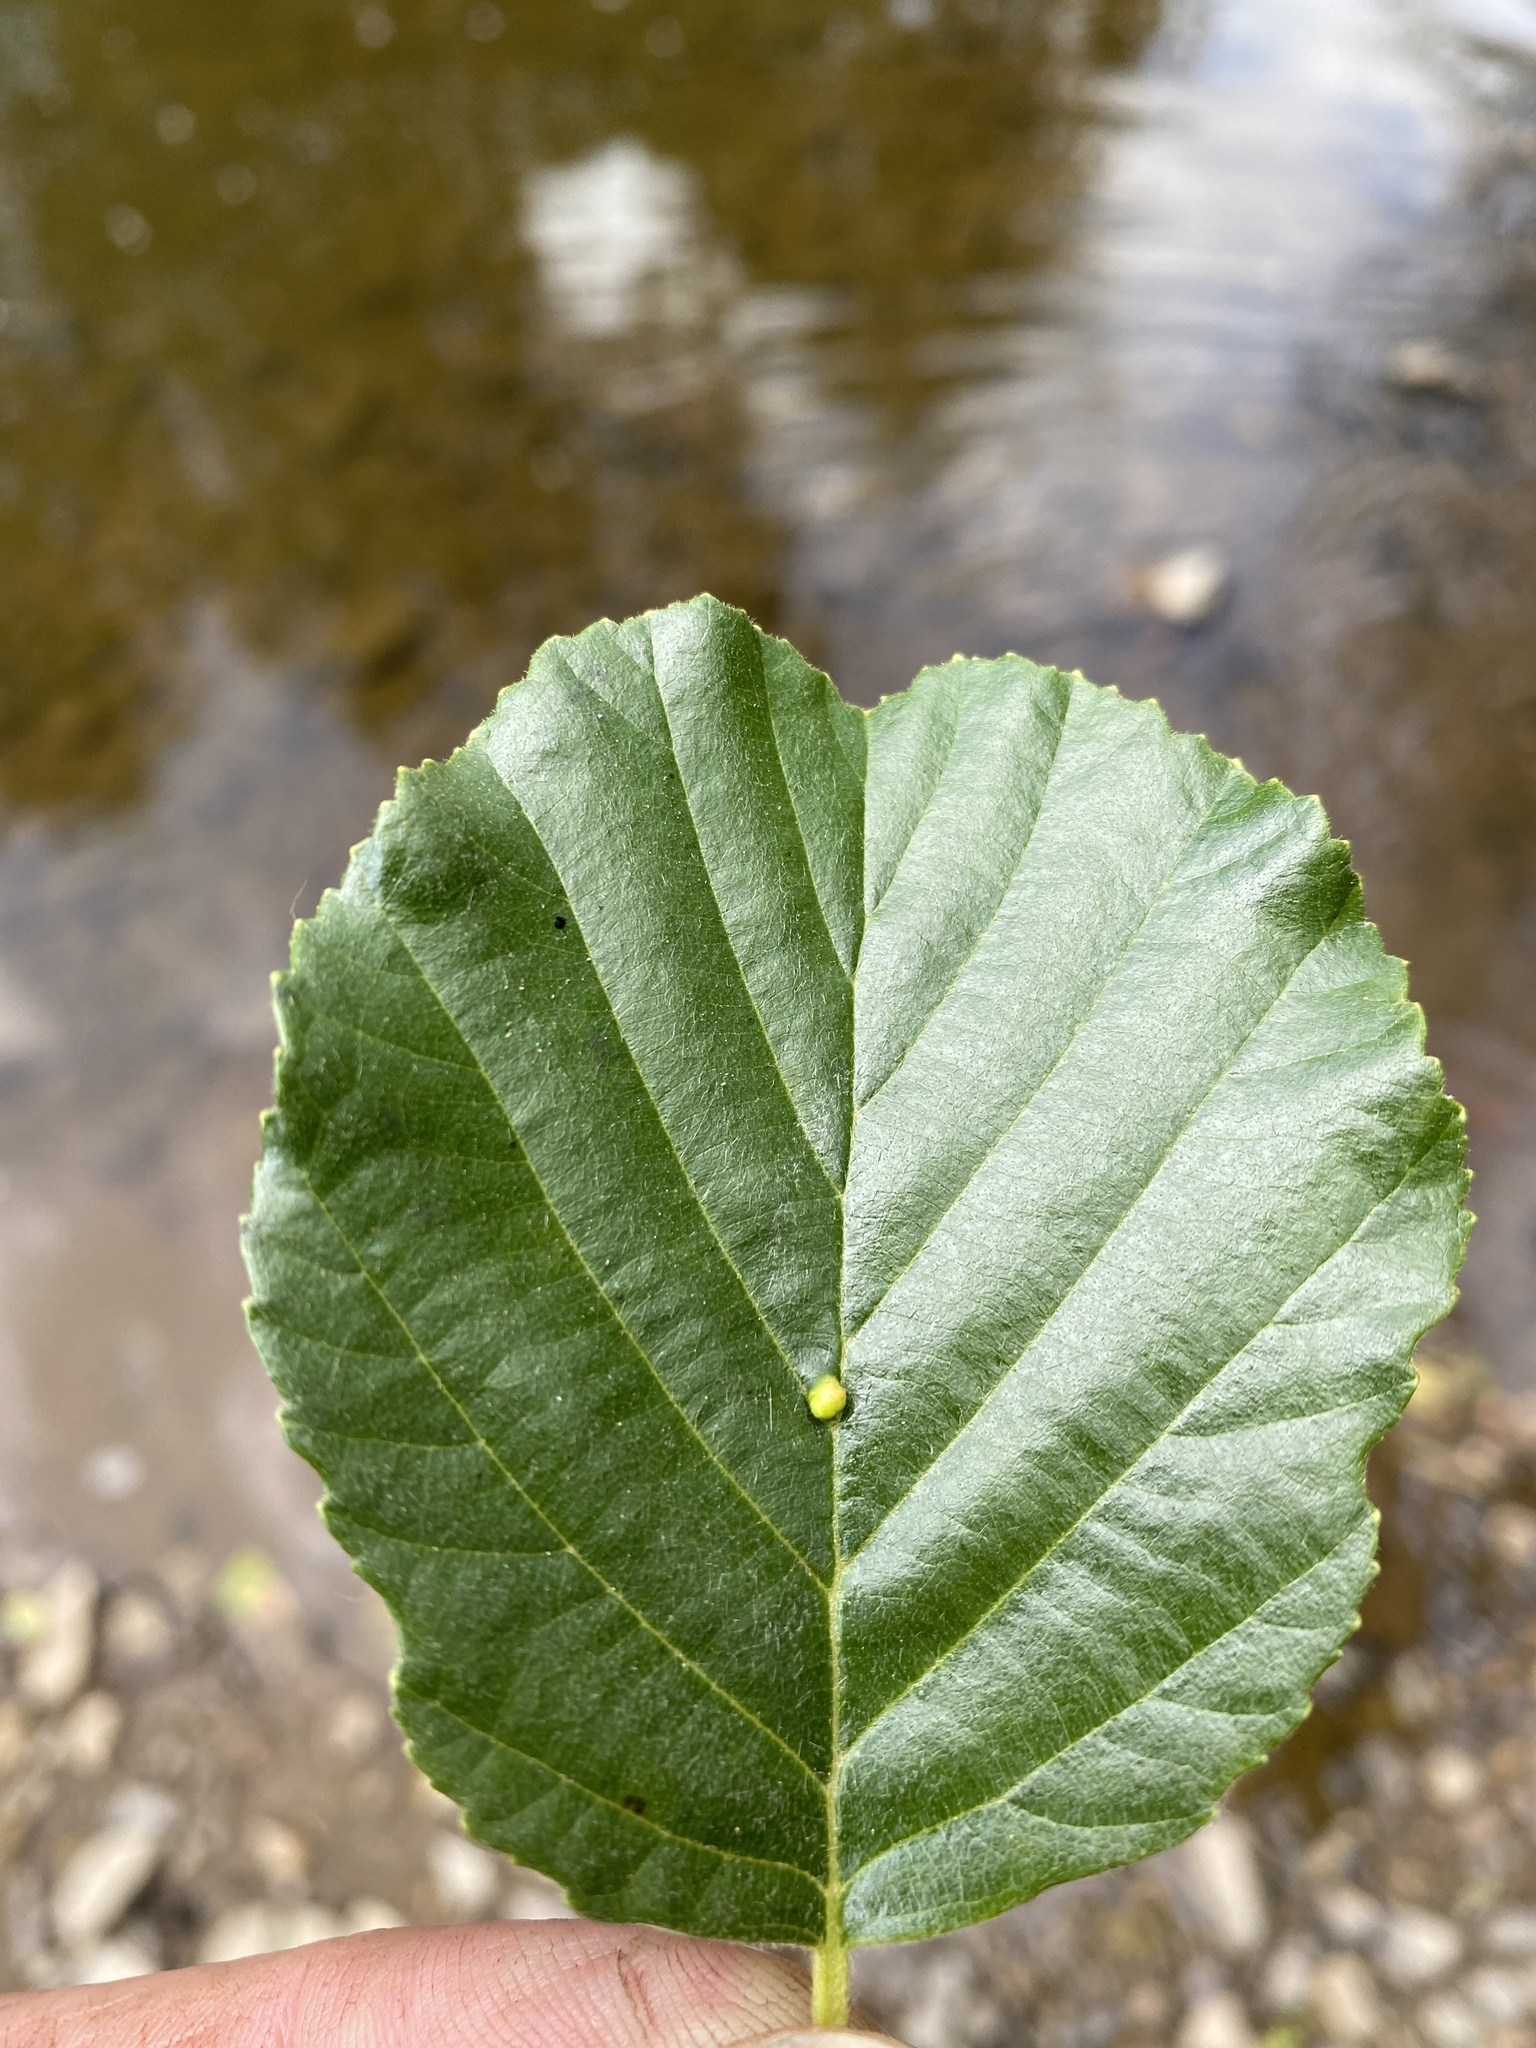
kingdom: Animalia
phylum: Arthropoda
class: Arachnida
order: Trombidiformes
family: Eriophyidae
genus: Eriophyes
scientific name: Eriophyes inangulis
